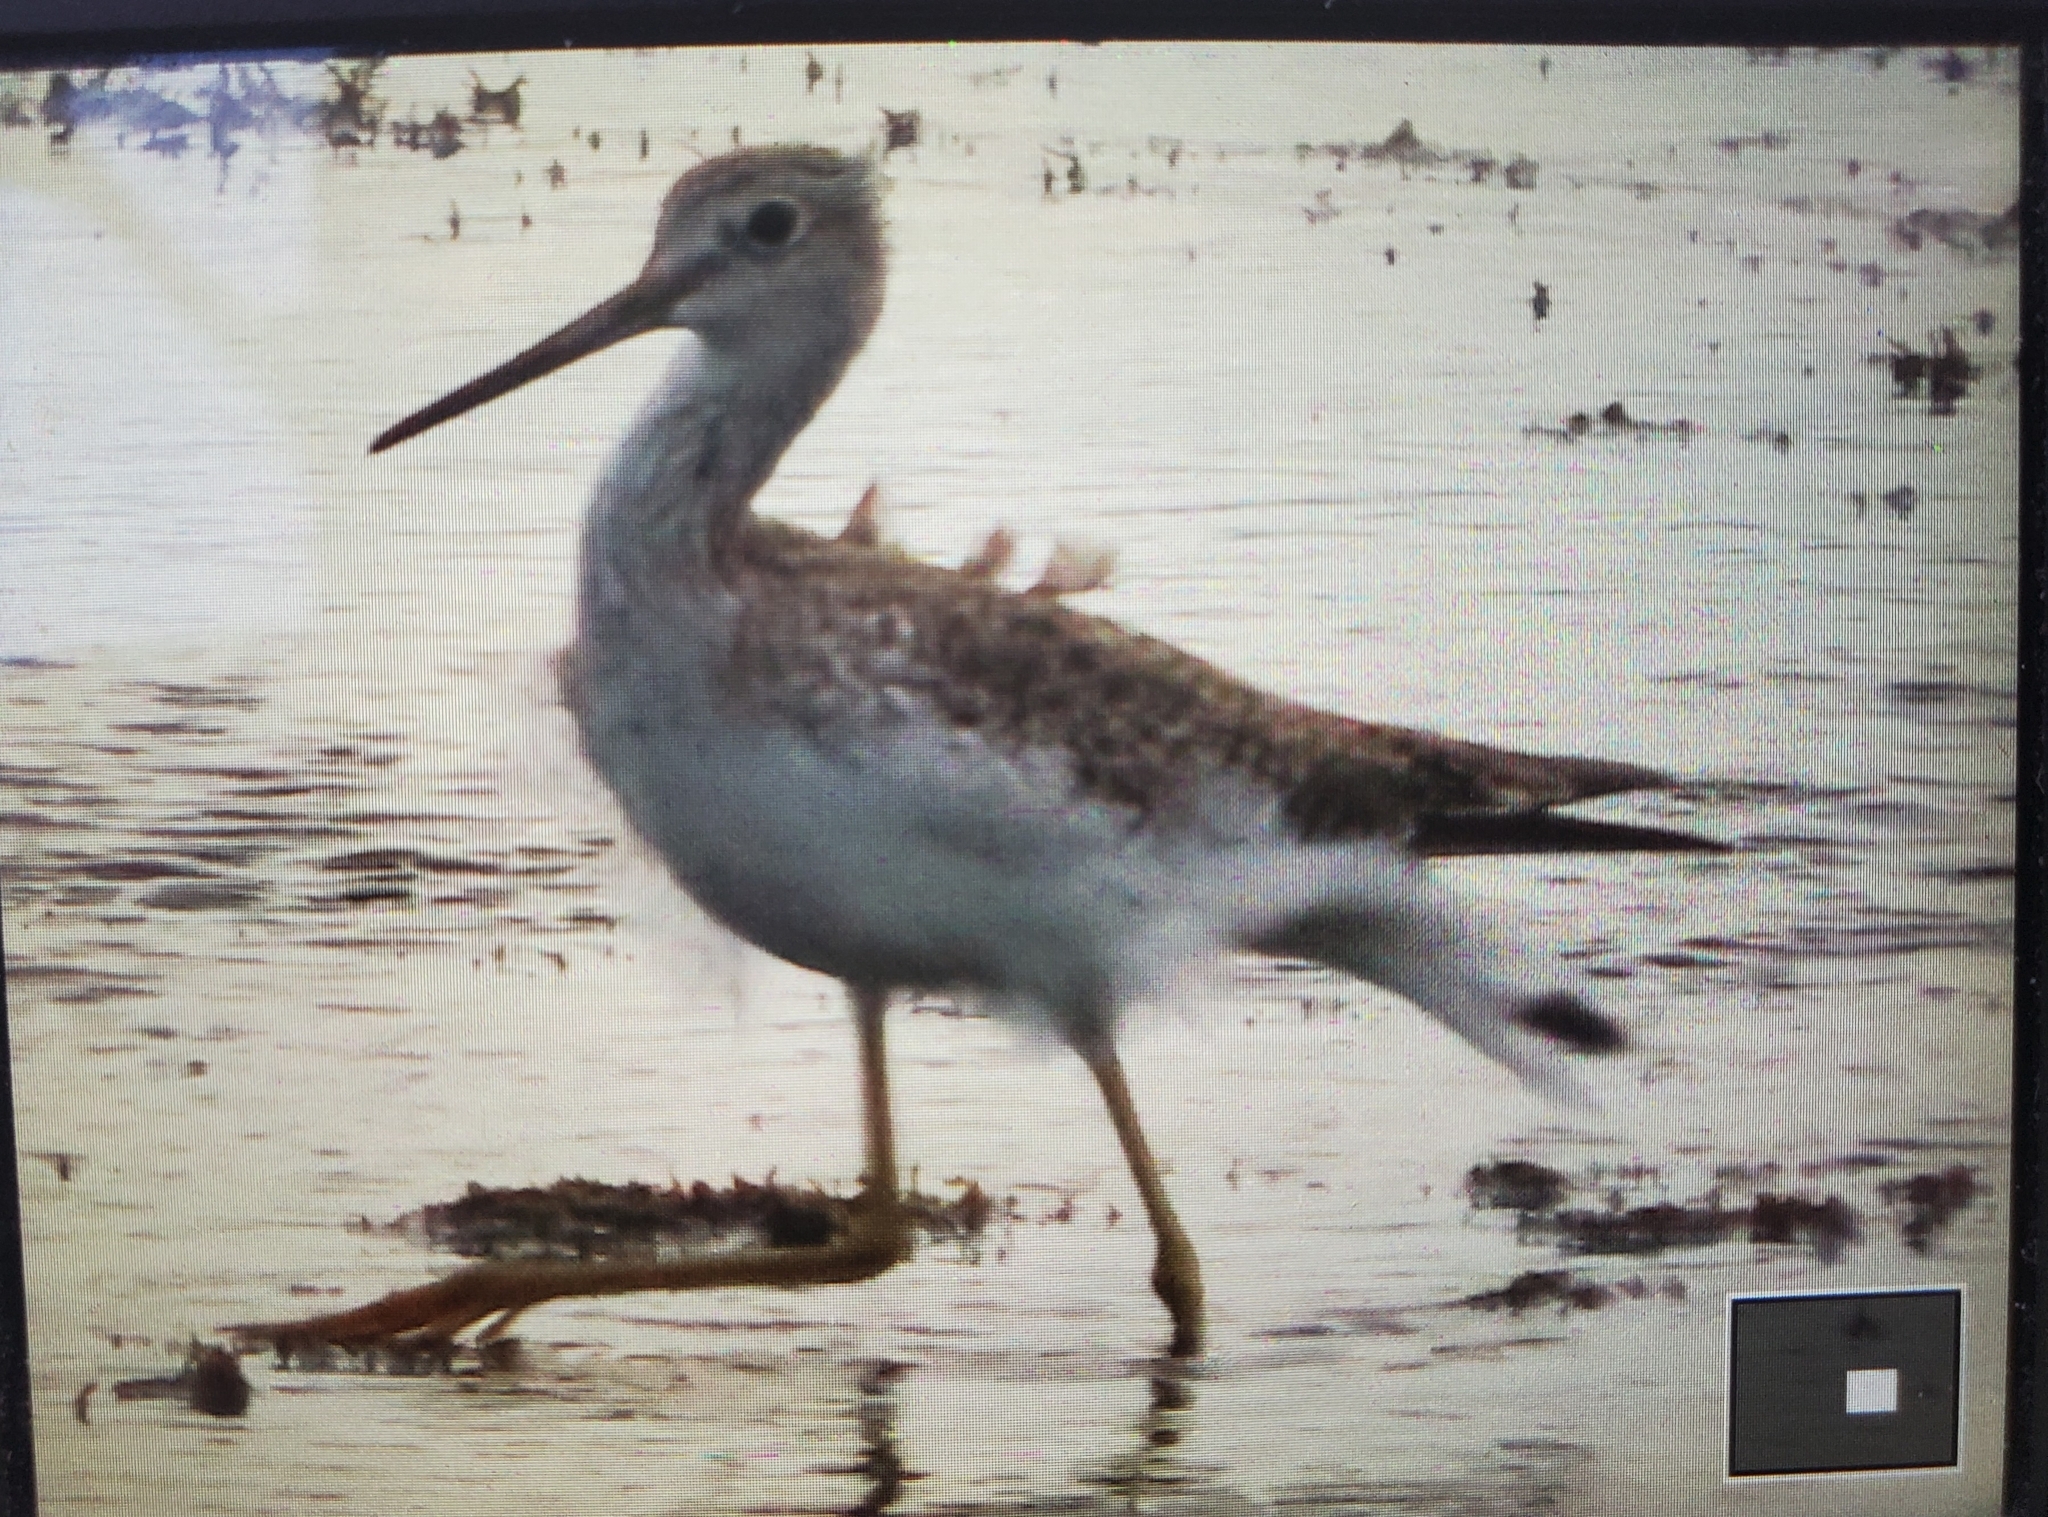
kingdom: Animalia
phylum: Chordata
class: Aves
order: Charadriiformes
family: Scolopacidae
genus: Tringa
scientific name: Tringa melanoleuca
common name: Greater yellowlegs
